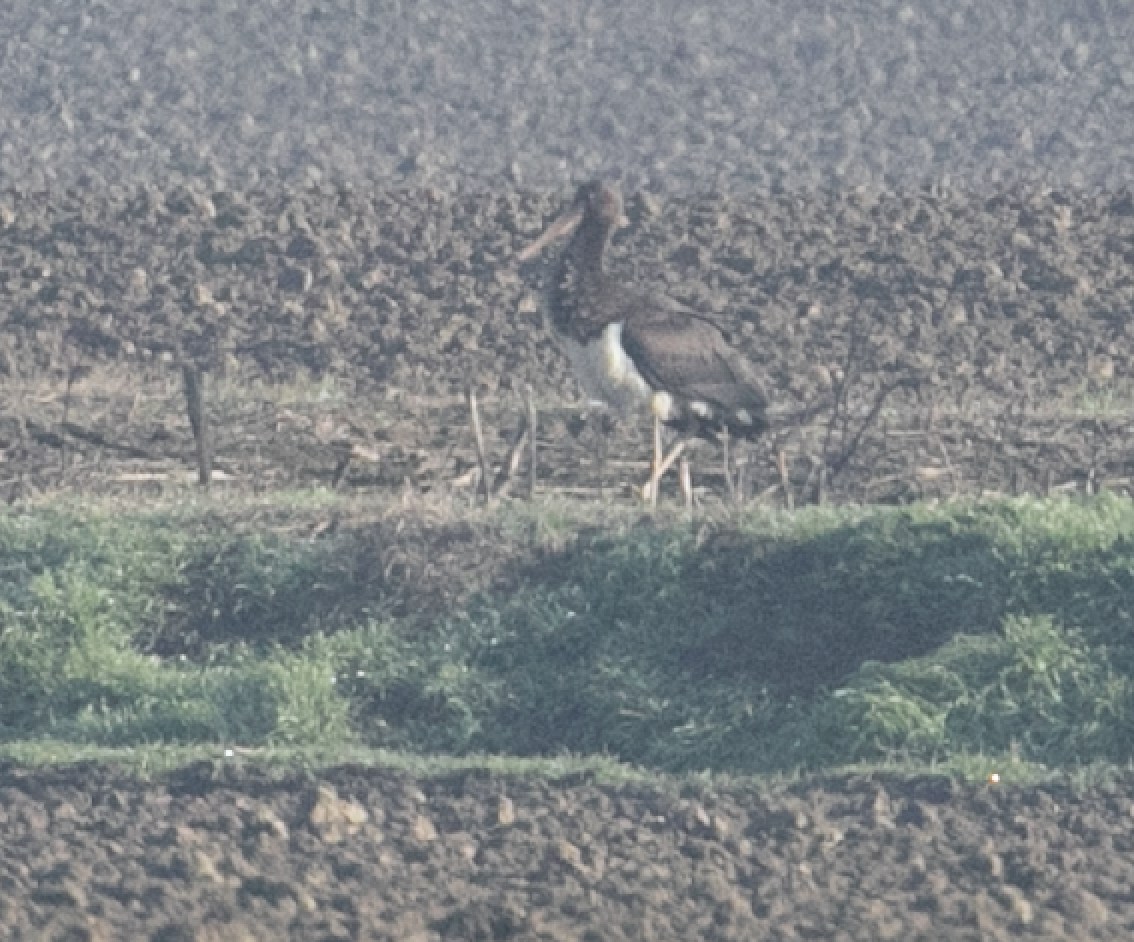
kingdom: Animalia
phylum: Chordata
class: Aves
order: Ciconiiformes
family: Ciconiidae
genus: Ciconia
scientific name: Ciconia nigra
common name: Black stork
